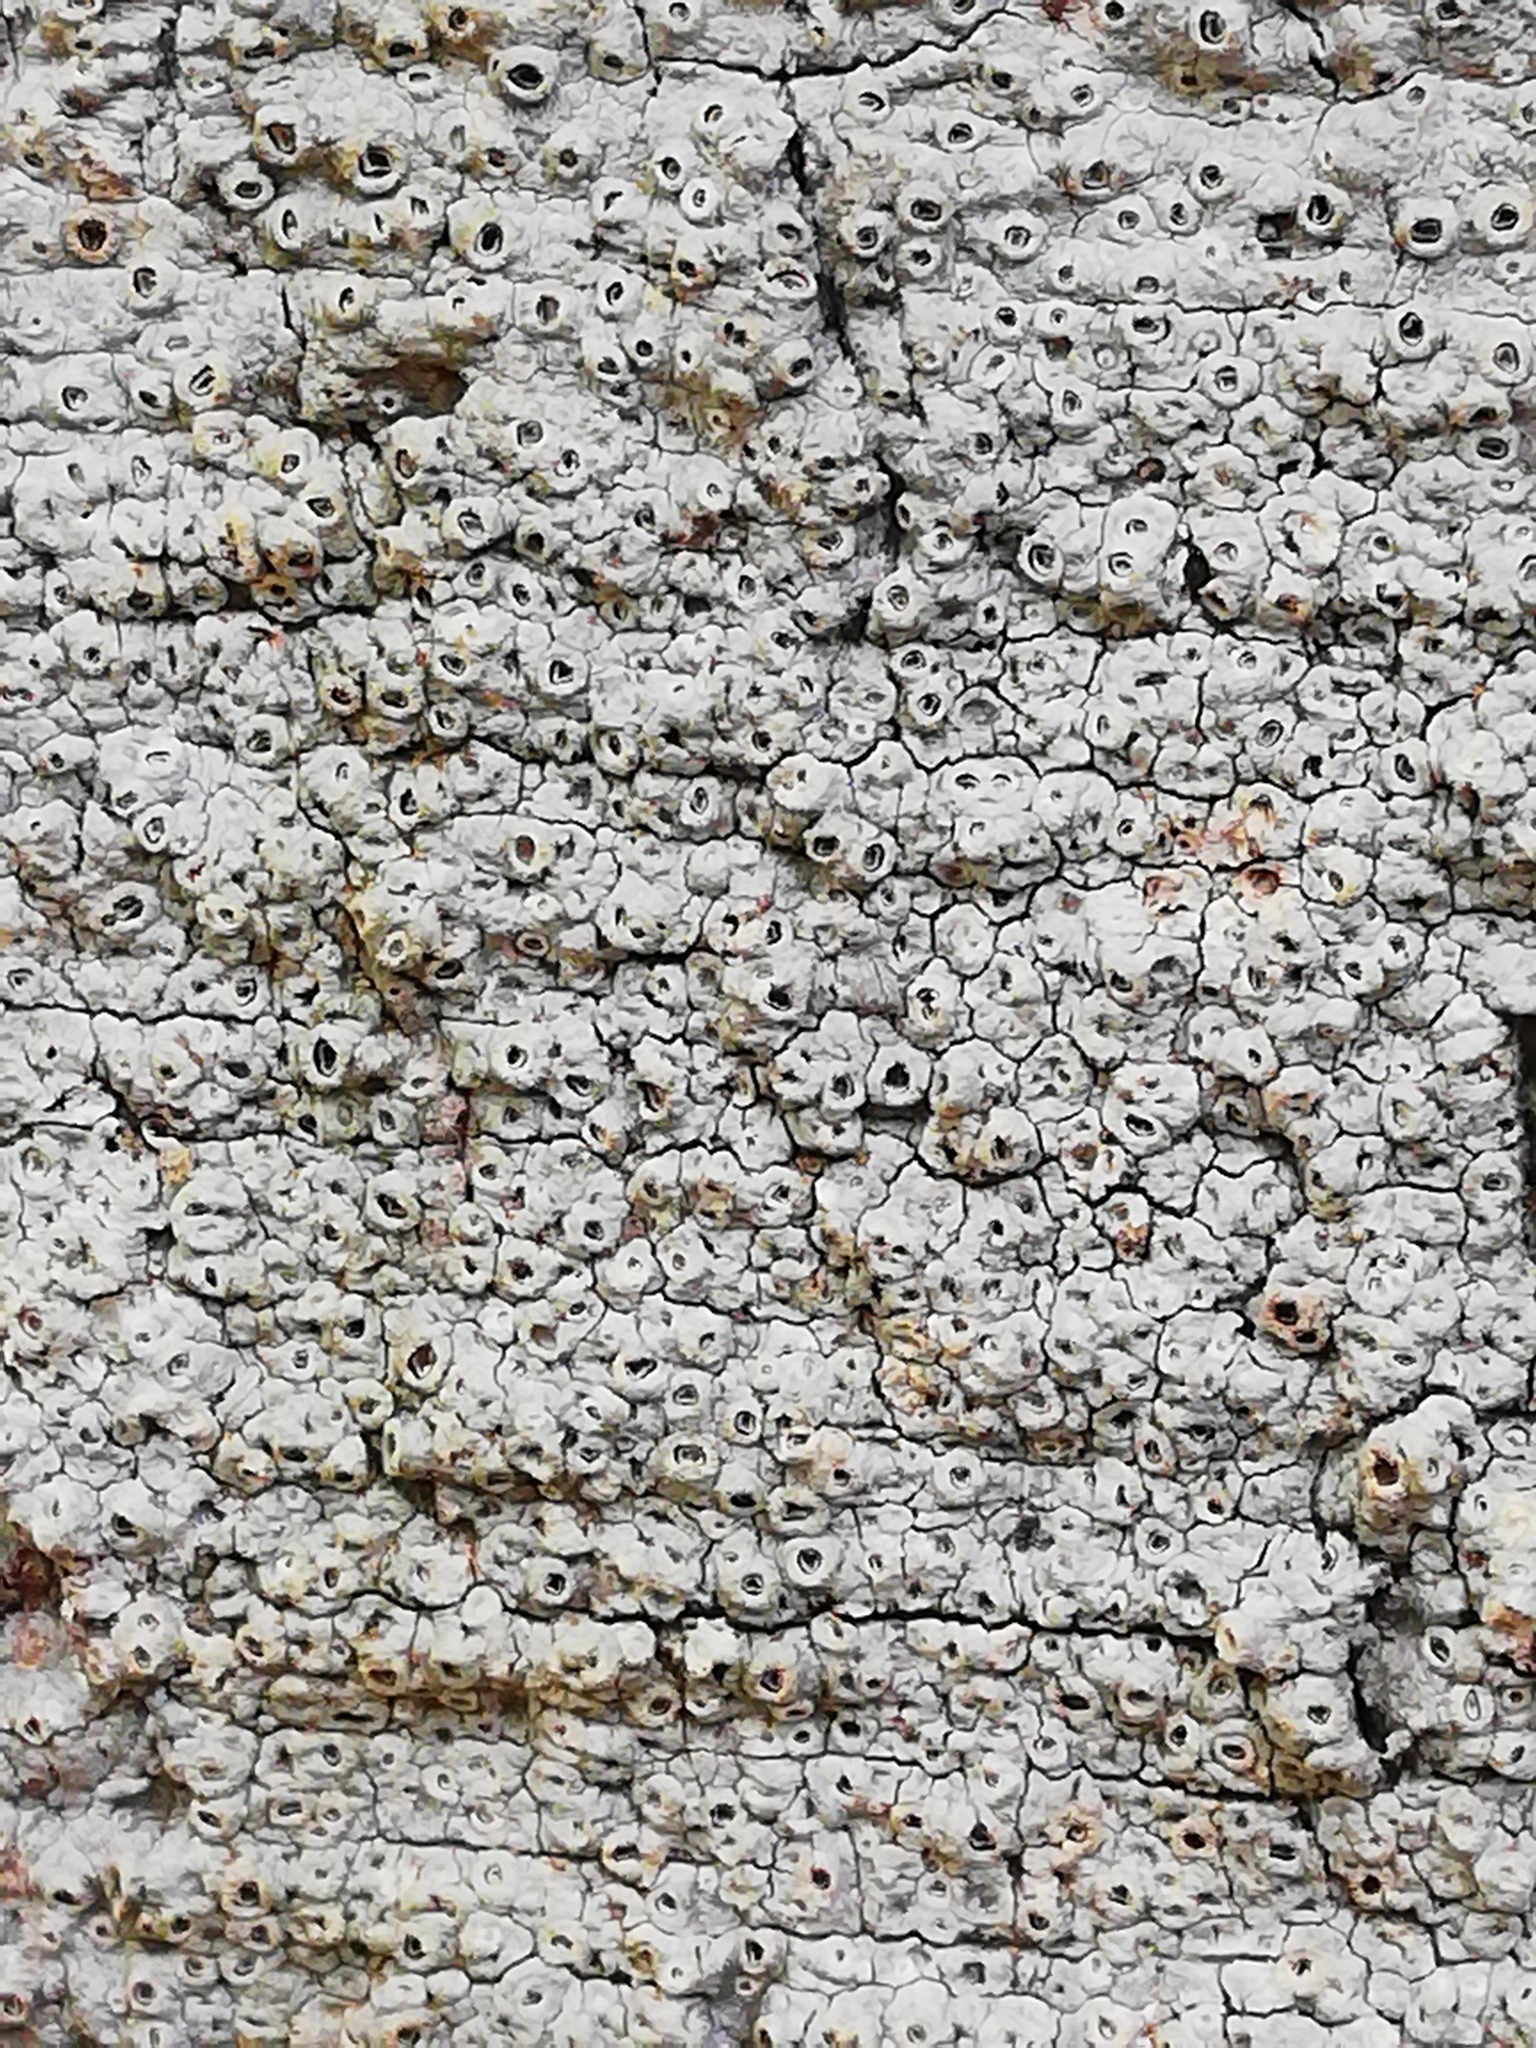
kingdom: Fungi
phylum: Ascomycota
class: Lecanoromycetes
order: Ostropales
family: Graphidaceae
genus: Thelotrema
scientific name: Thelotrema lepadinum
